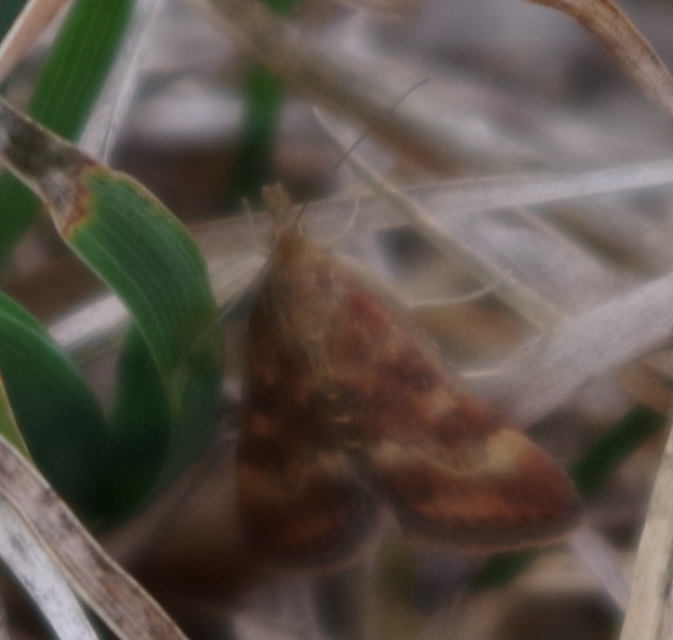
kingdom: Animalia
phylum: Arthropoda
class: Insecta
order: Lepidoptera
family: Crambidae
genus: Pyrausta
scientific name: Pyrausta despicata
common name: Straw-barred pearl
